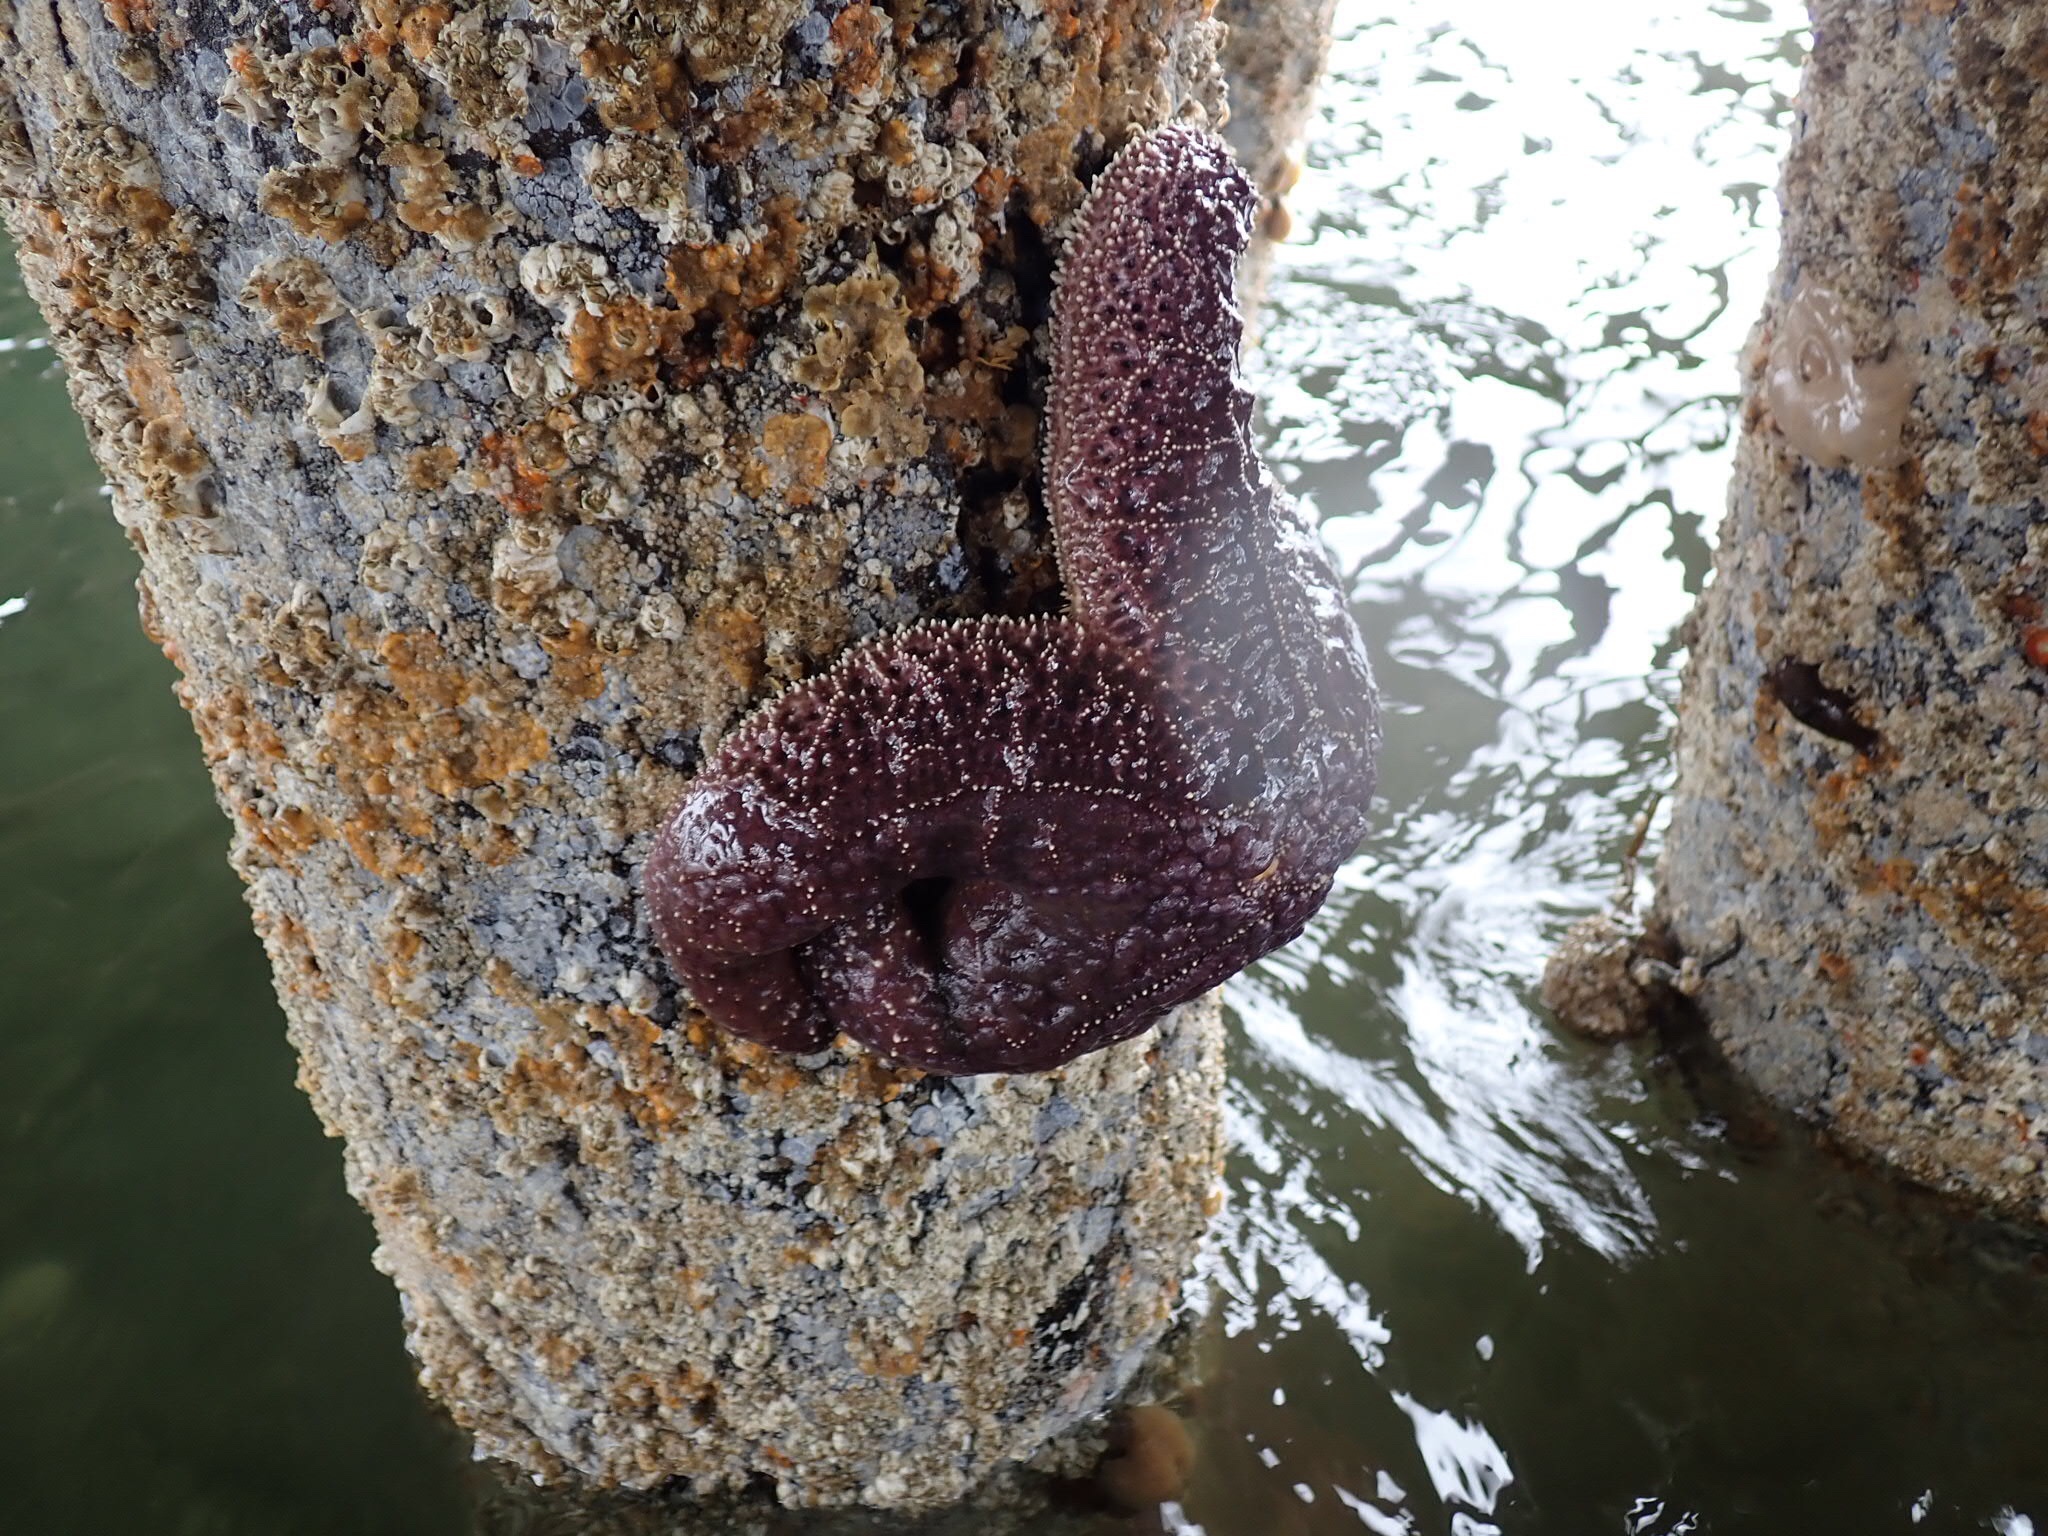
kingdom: Animalia
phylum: Echinodermata
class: Asteroidea
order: Forcipulatida
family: Asteriidae
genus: Pisaster
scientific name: Pisaster ochraceus
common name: Ochre stars
